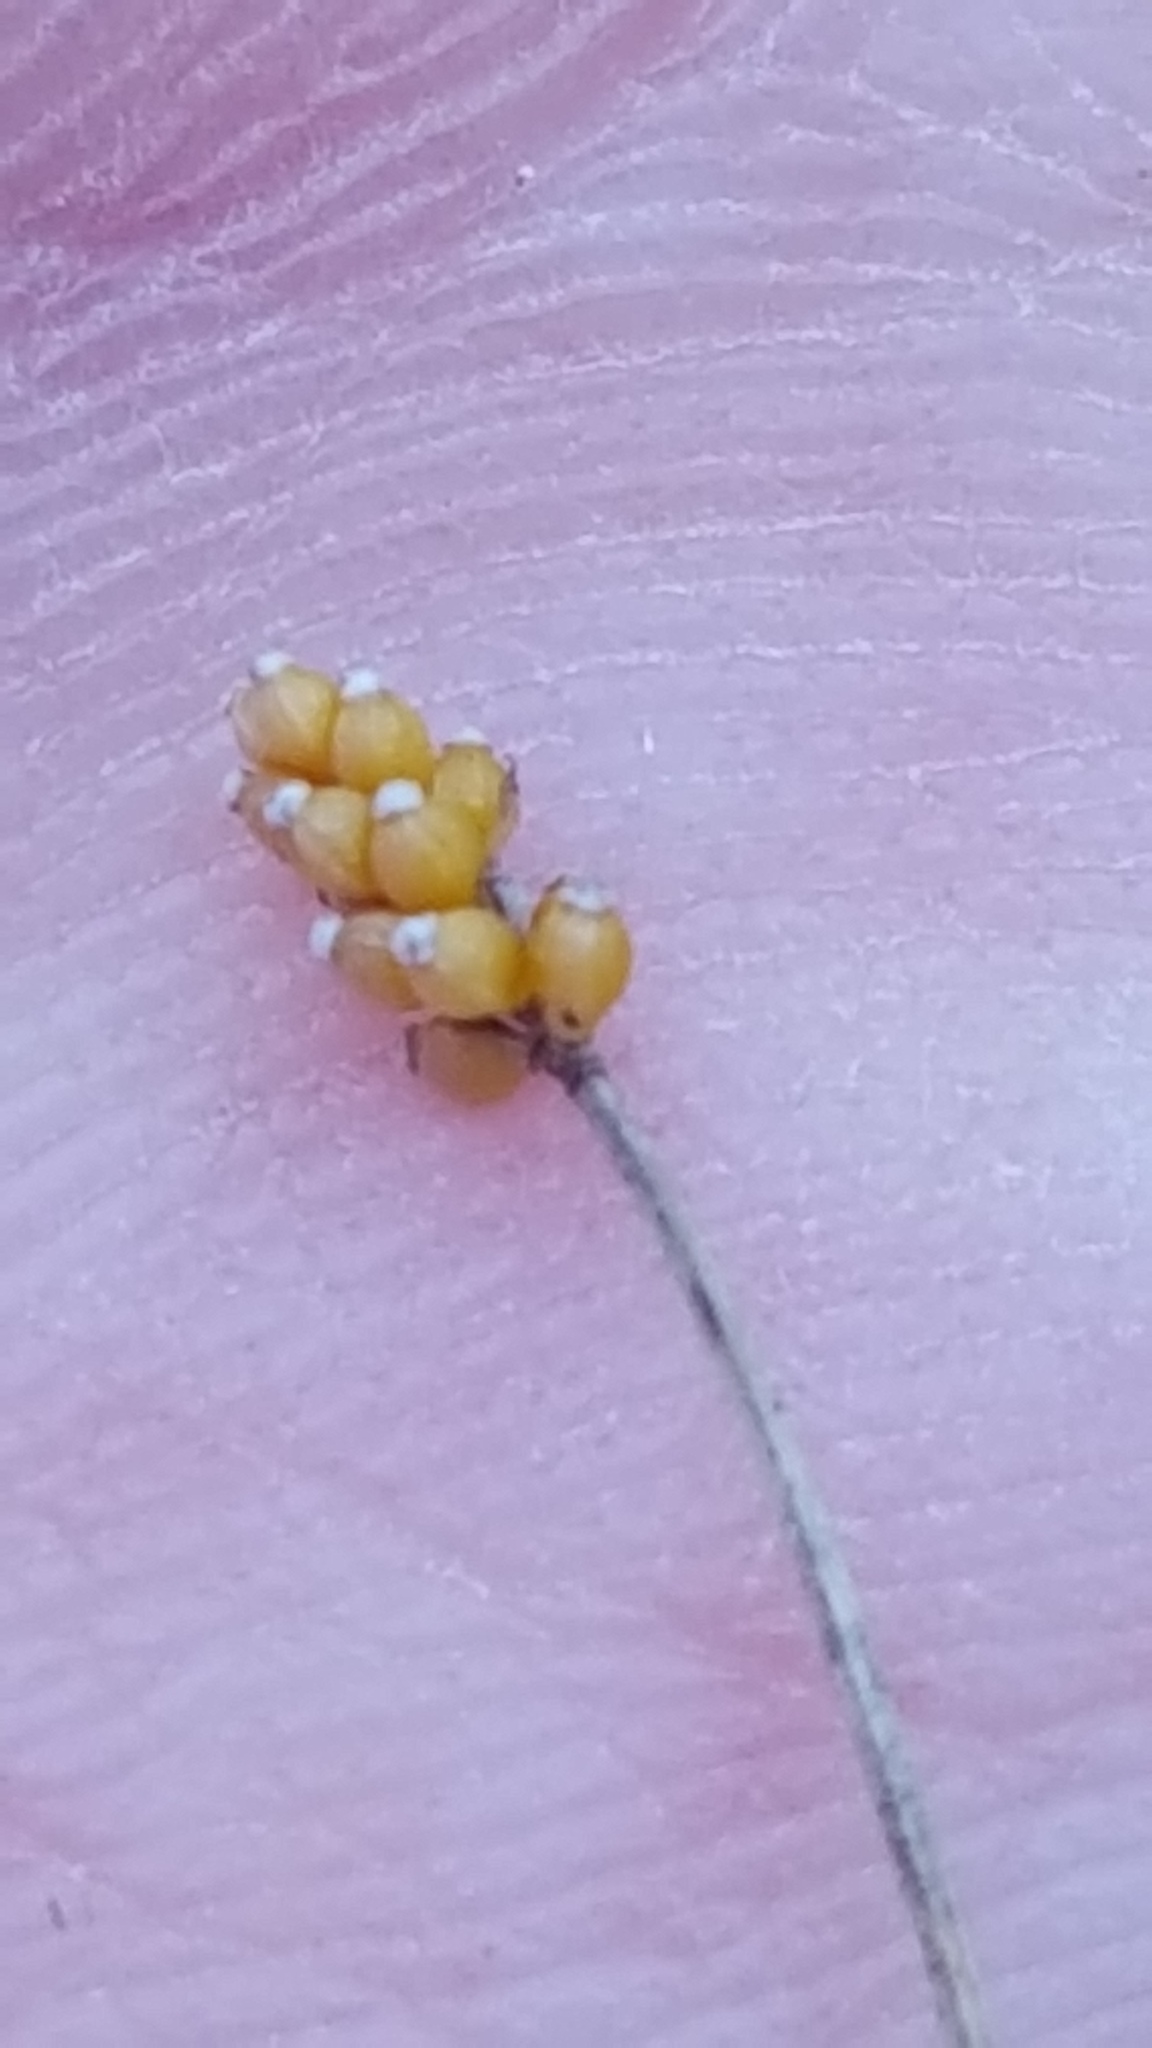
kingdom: Plantae
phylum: Tracheophyta
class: Liliopsida
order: Poales
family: Cyperaceae
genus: Eleocharis
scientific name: Eleocharis nitida
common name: Neat spikerush
